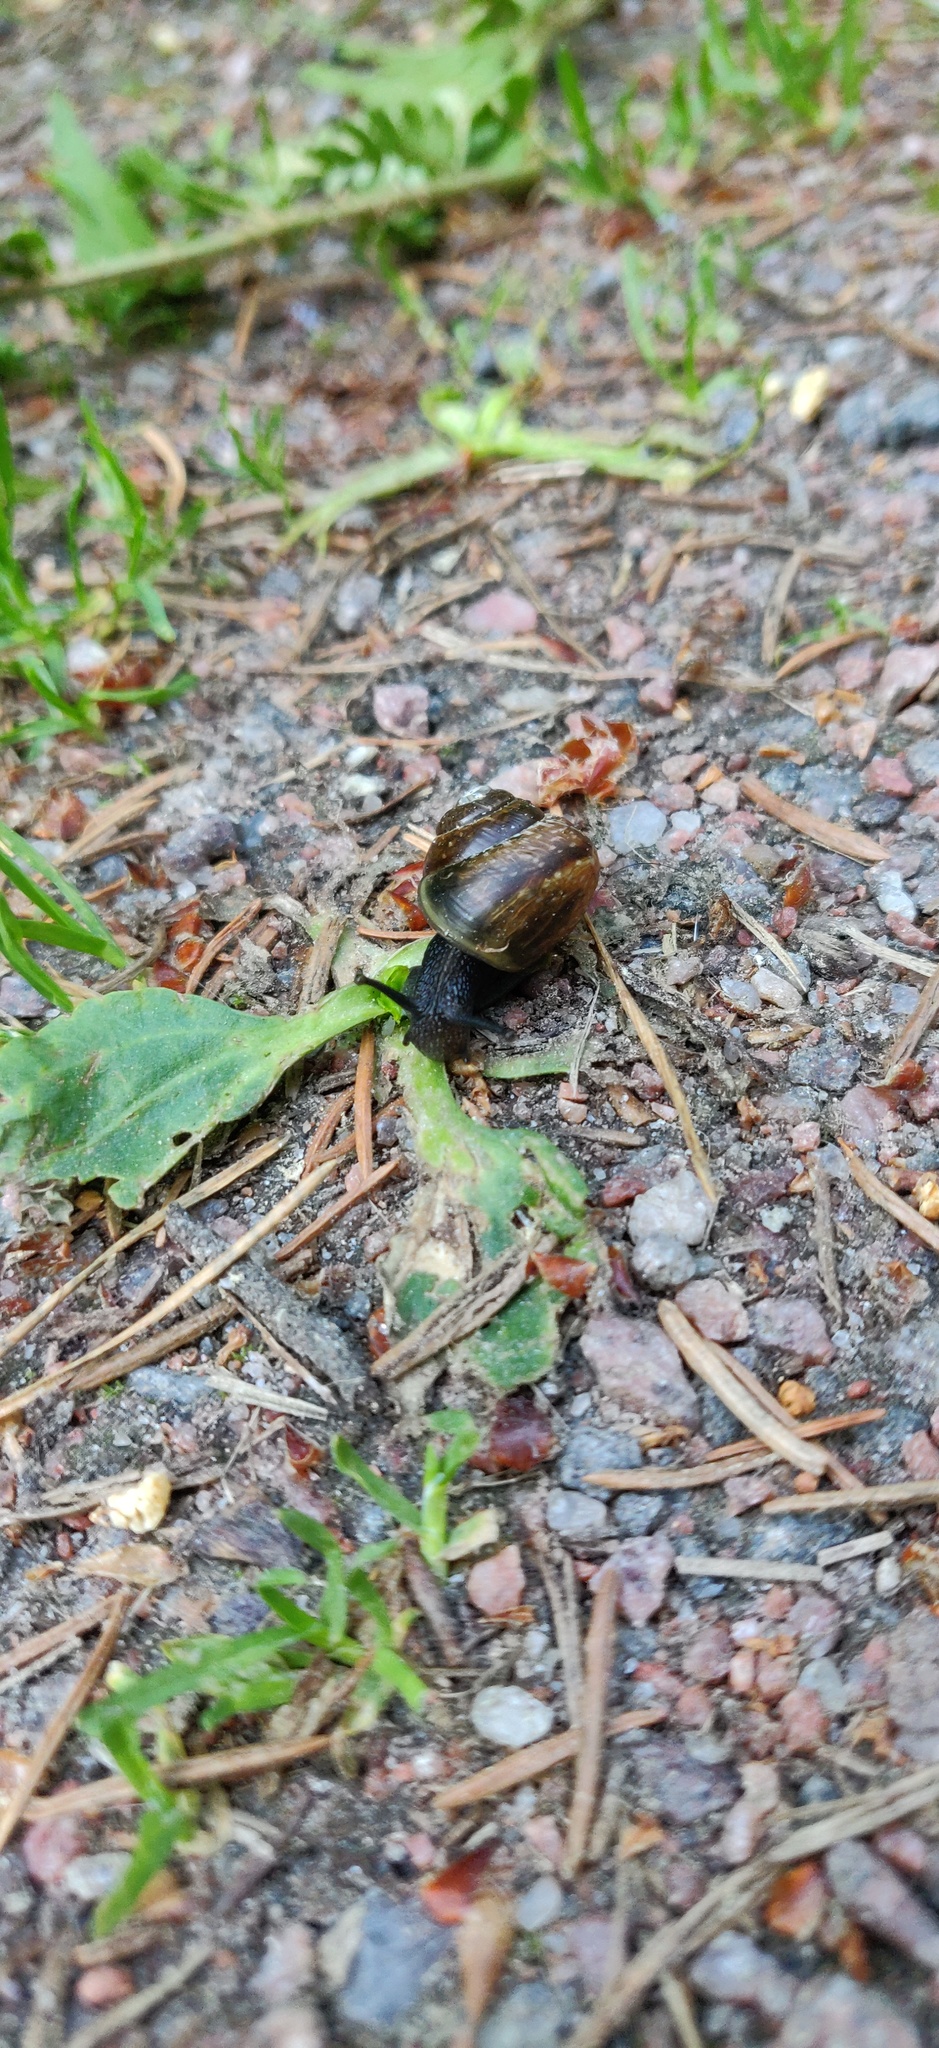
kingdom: Animalia
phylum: Mollusca
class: Gastropoda
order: Stylommatophora
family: Helicidae
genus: Arianta
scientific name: Arianta arbustorum
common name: Copse snail
